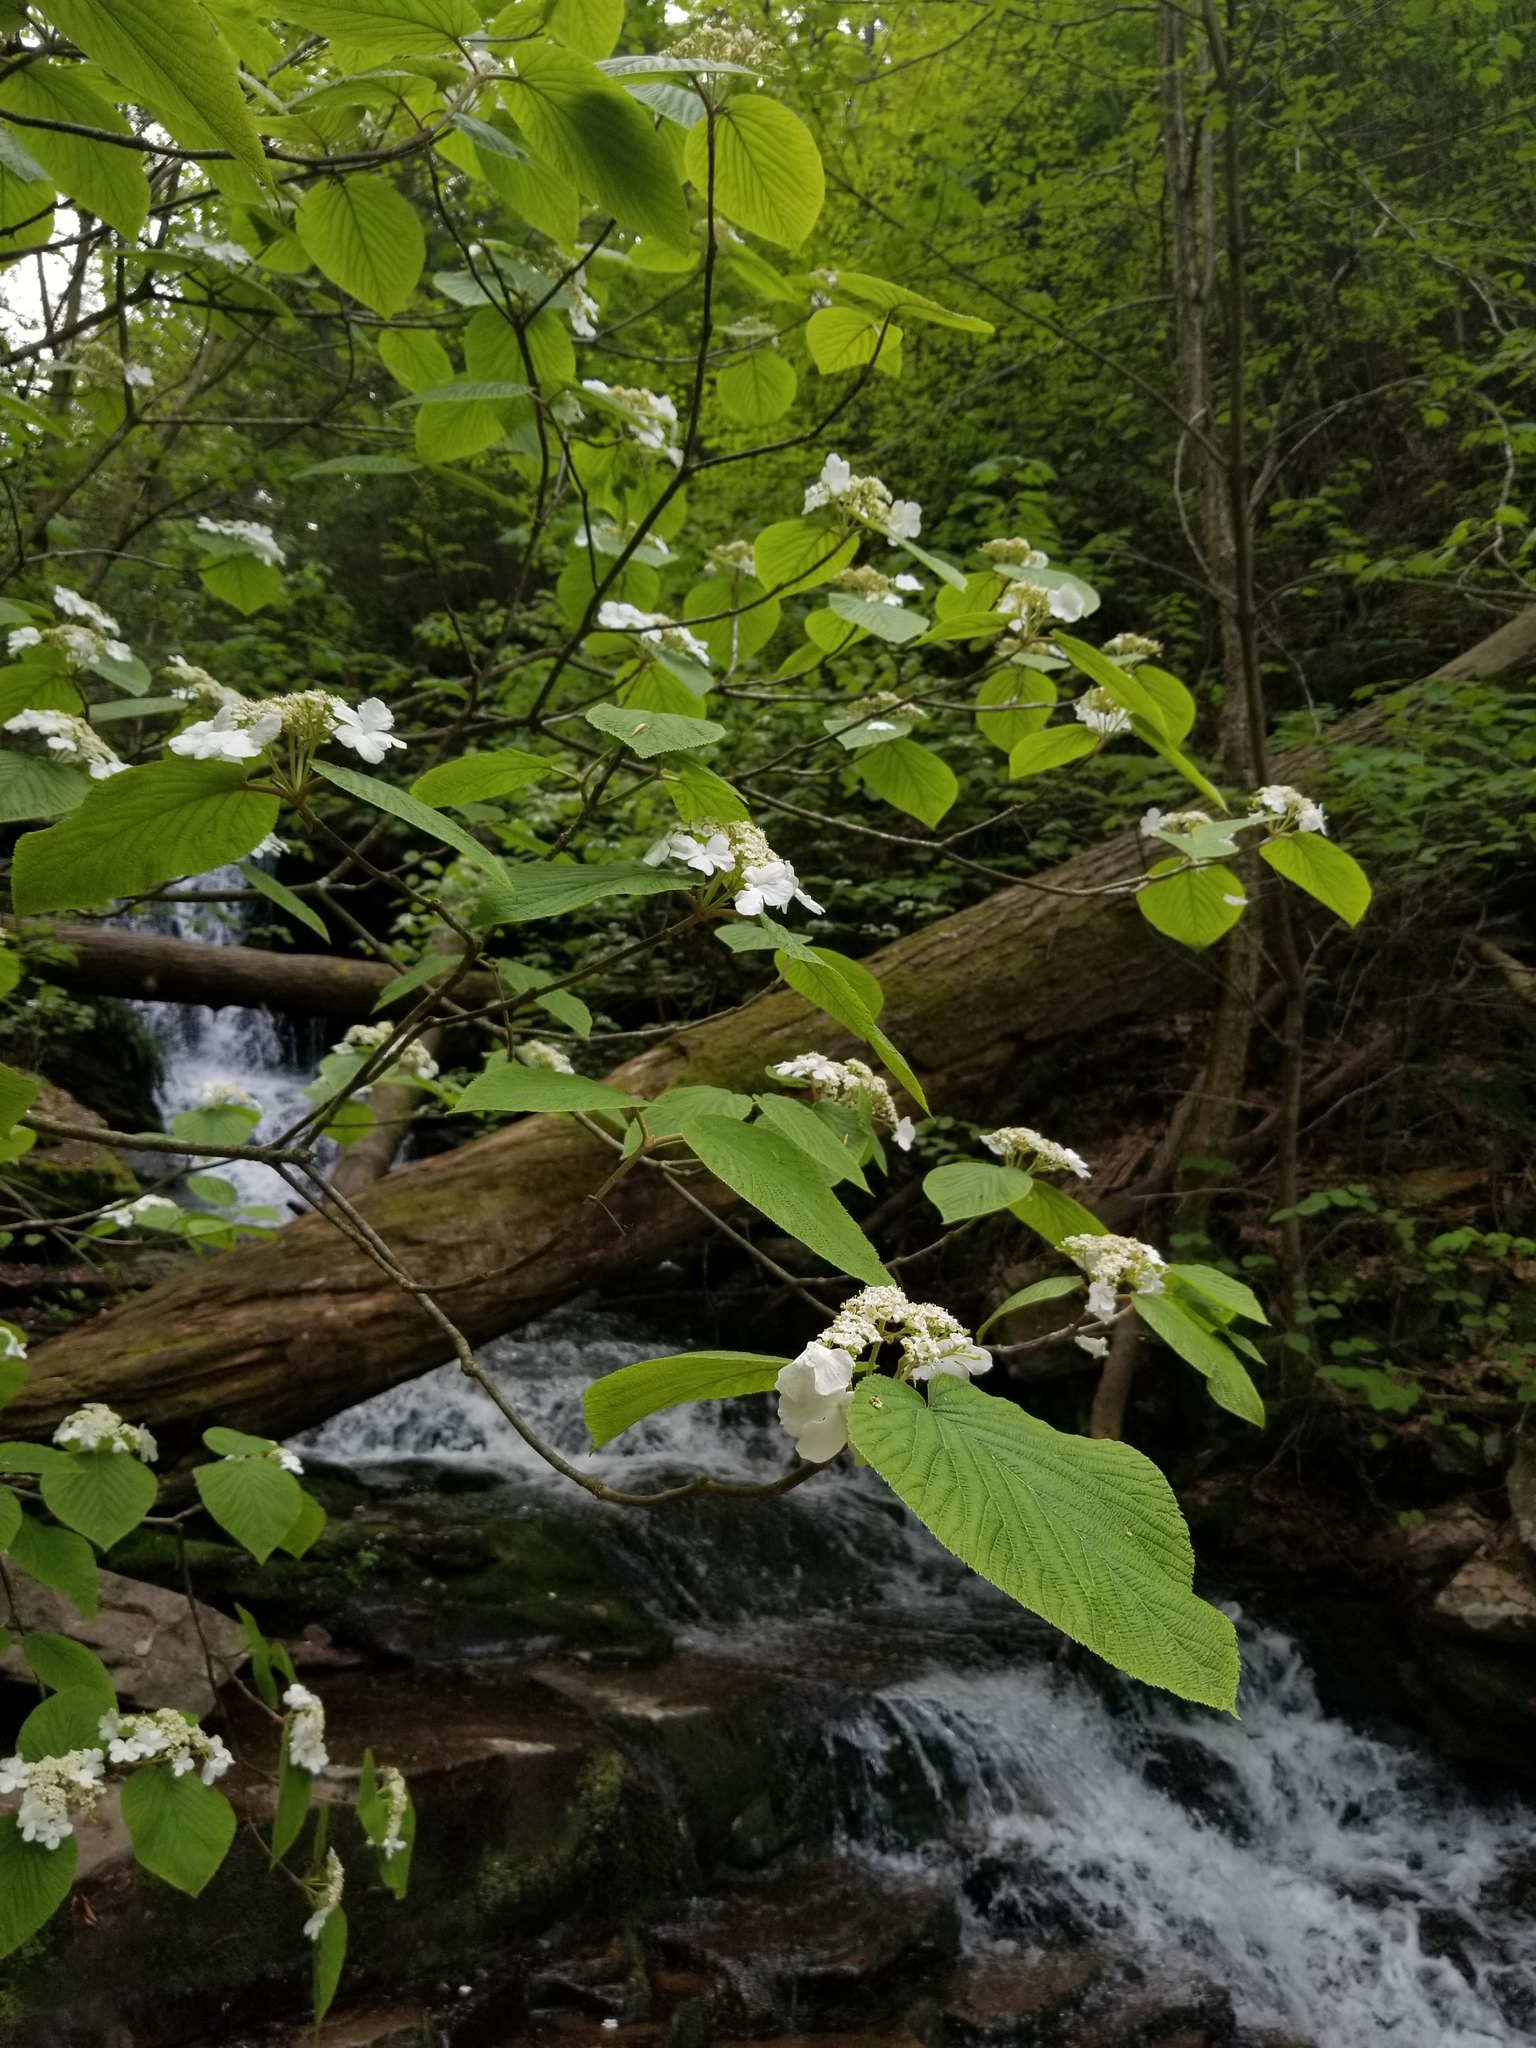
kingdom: Plantae
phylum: Tracheophyta
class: Magnoliopsida
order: Dipsacales
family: Viburnaceae
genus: Viburnum
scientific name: Viburnum lantanoides
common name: Hobblebush
